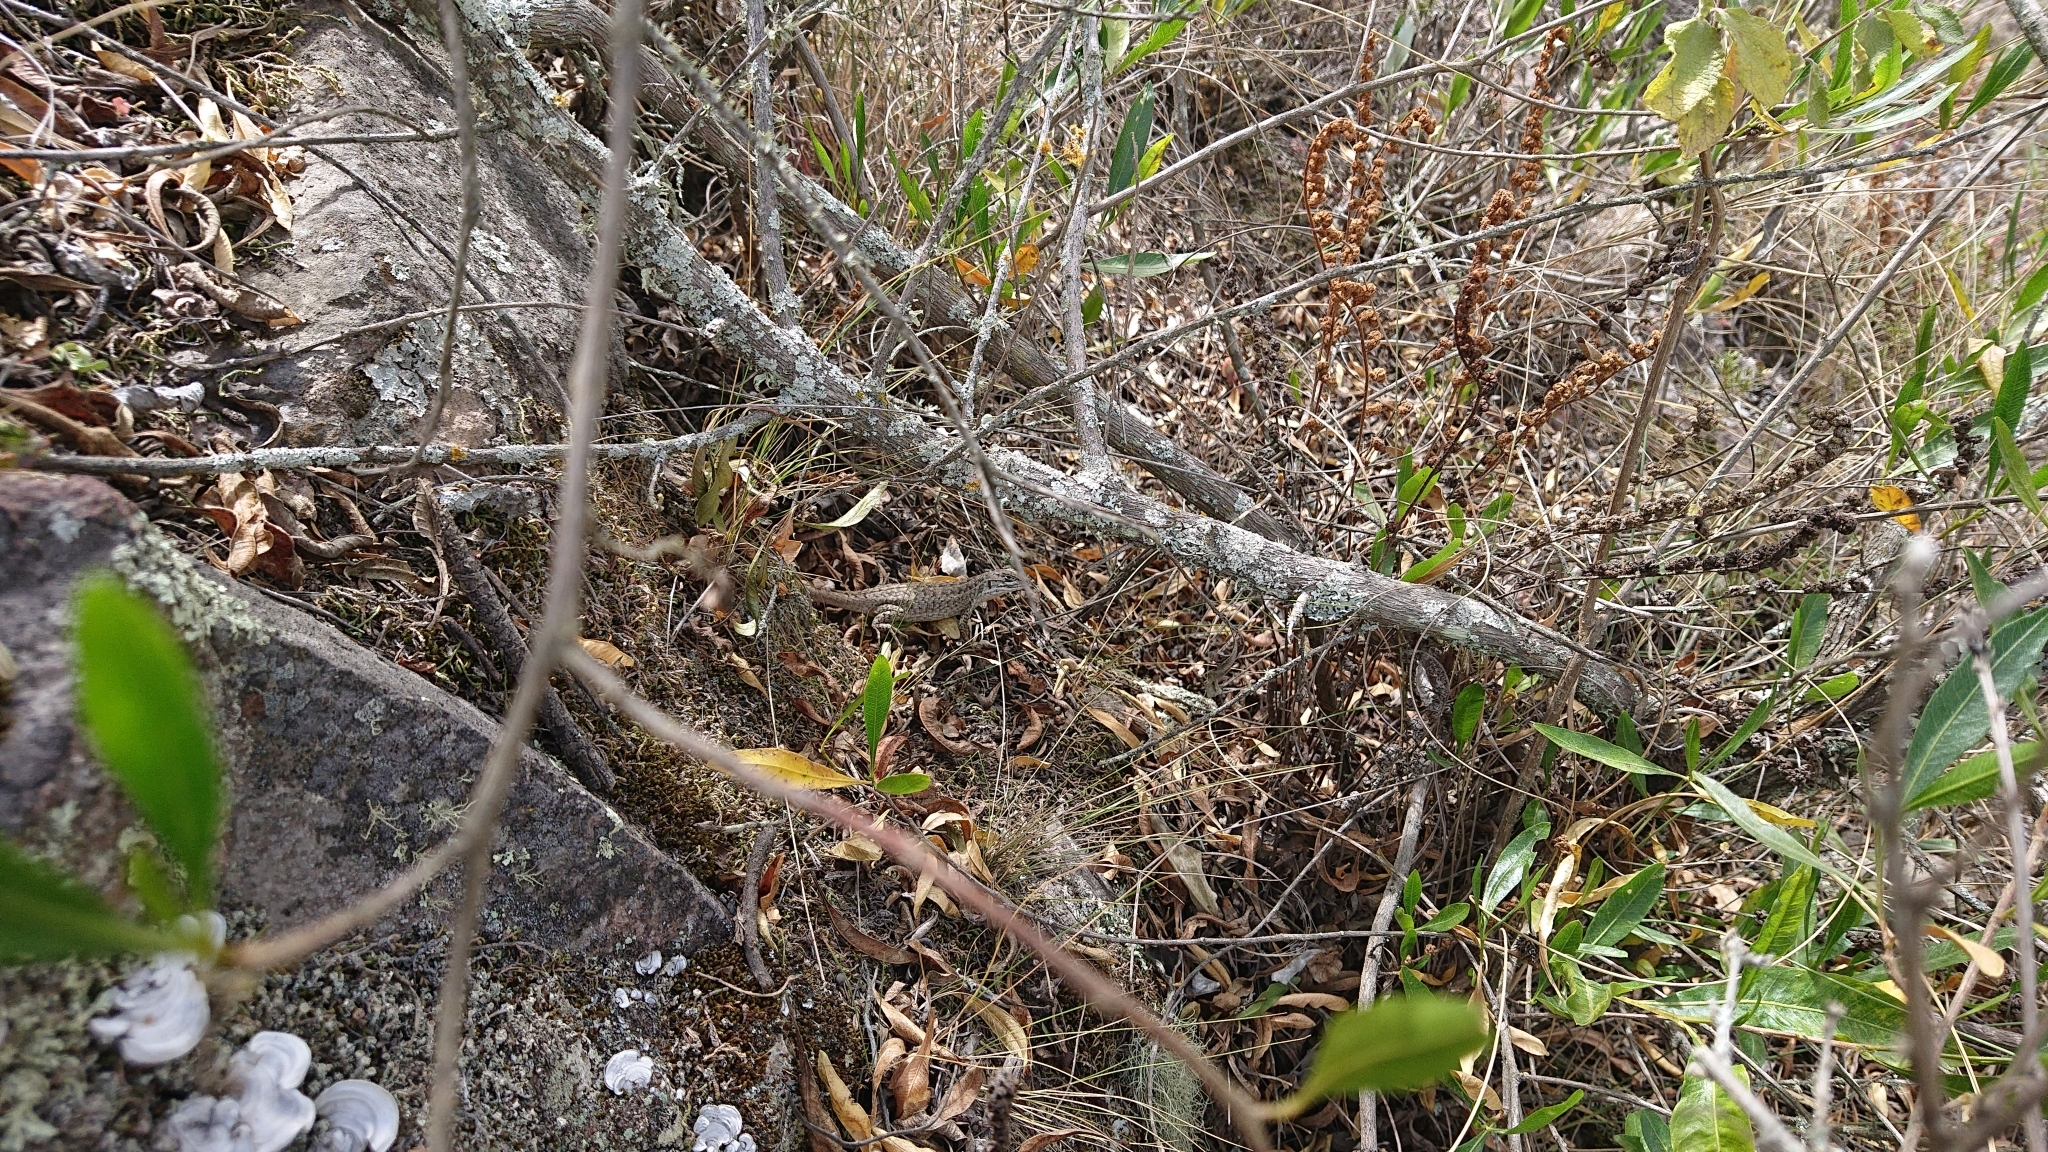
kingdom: Animalia
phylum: Chordata
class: Squamata
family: Tropiduridae
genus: Stenocercus
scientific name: Stenocercus guentheri
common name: Günther's whorltail iguana
